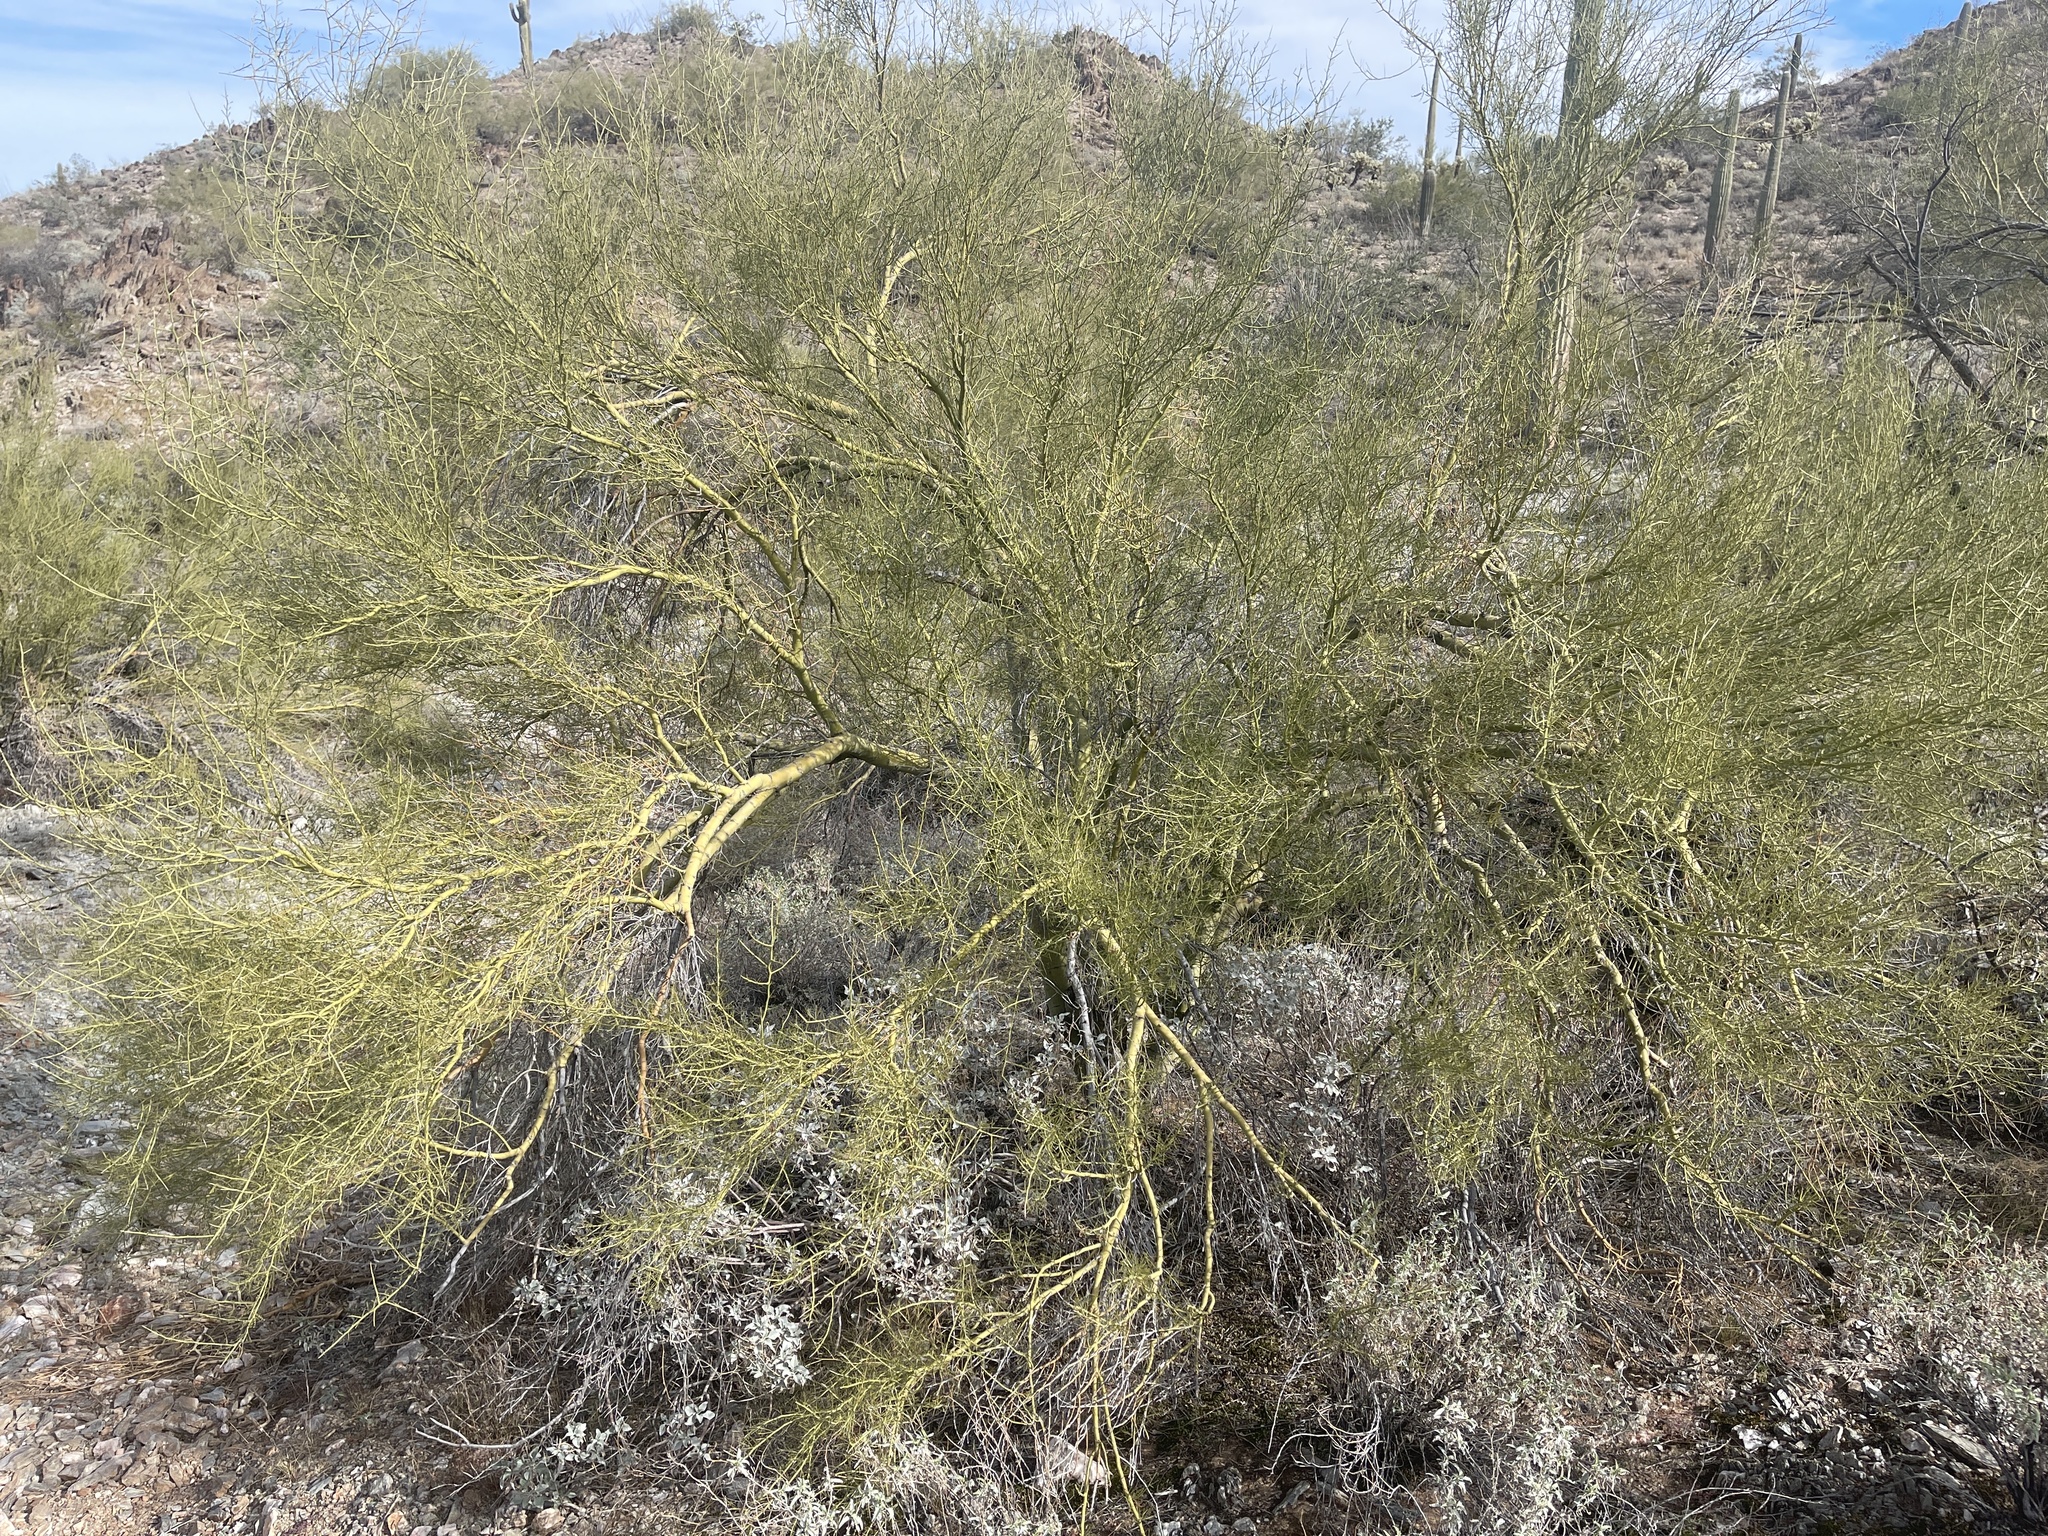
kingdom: Plantae
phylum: Tracheophyta
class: Magnoliopsida
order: Fabales
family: Fabaceae
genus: Parkinsonia
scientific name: Parkinsonia microphylla
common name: Yellow paloverde
